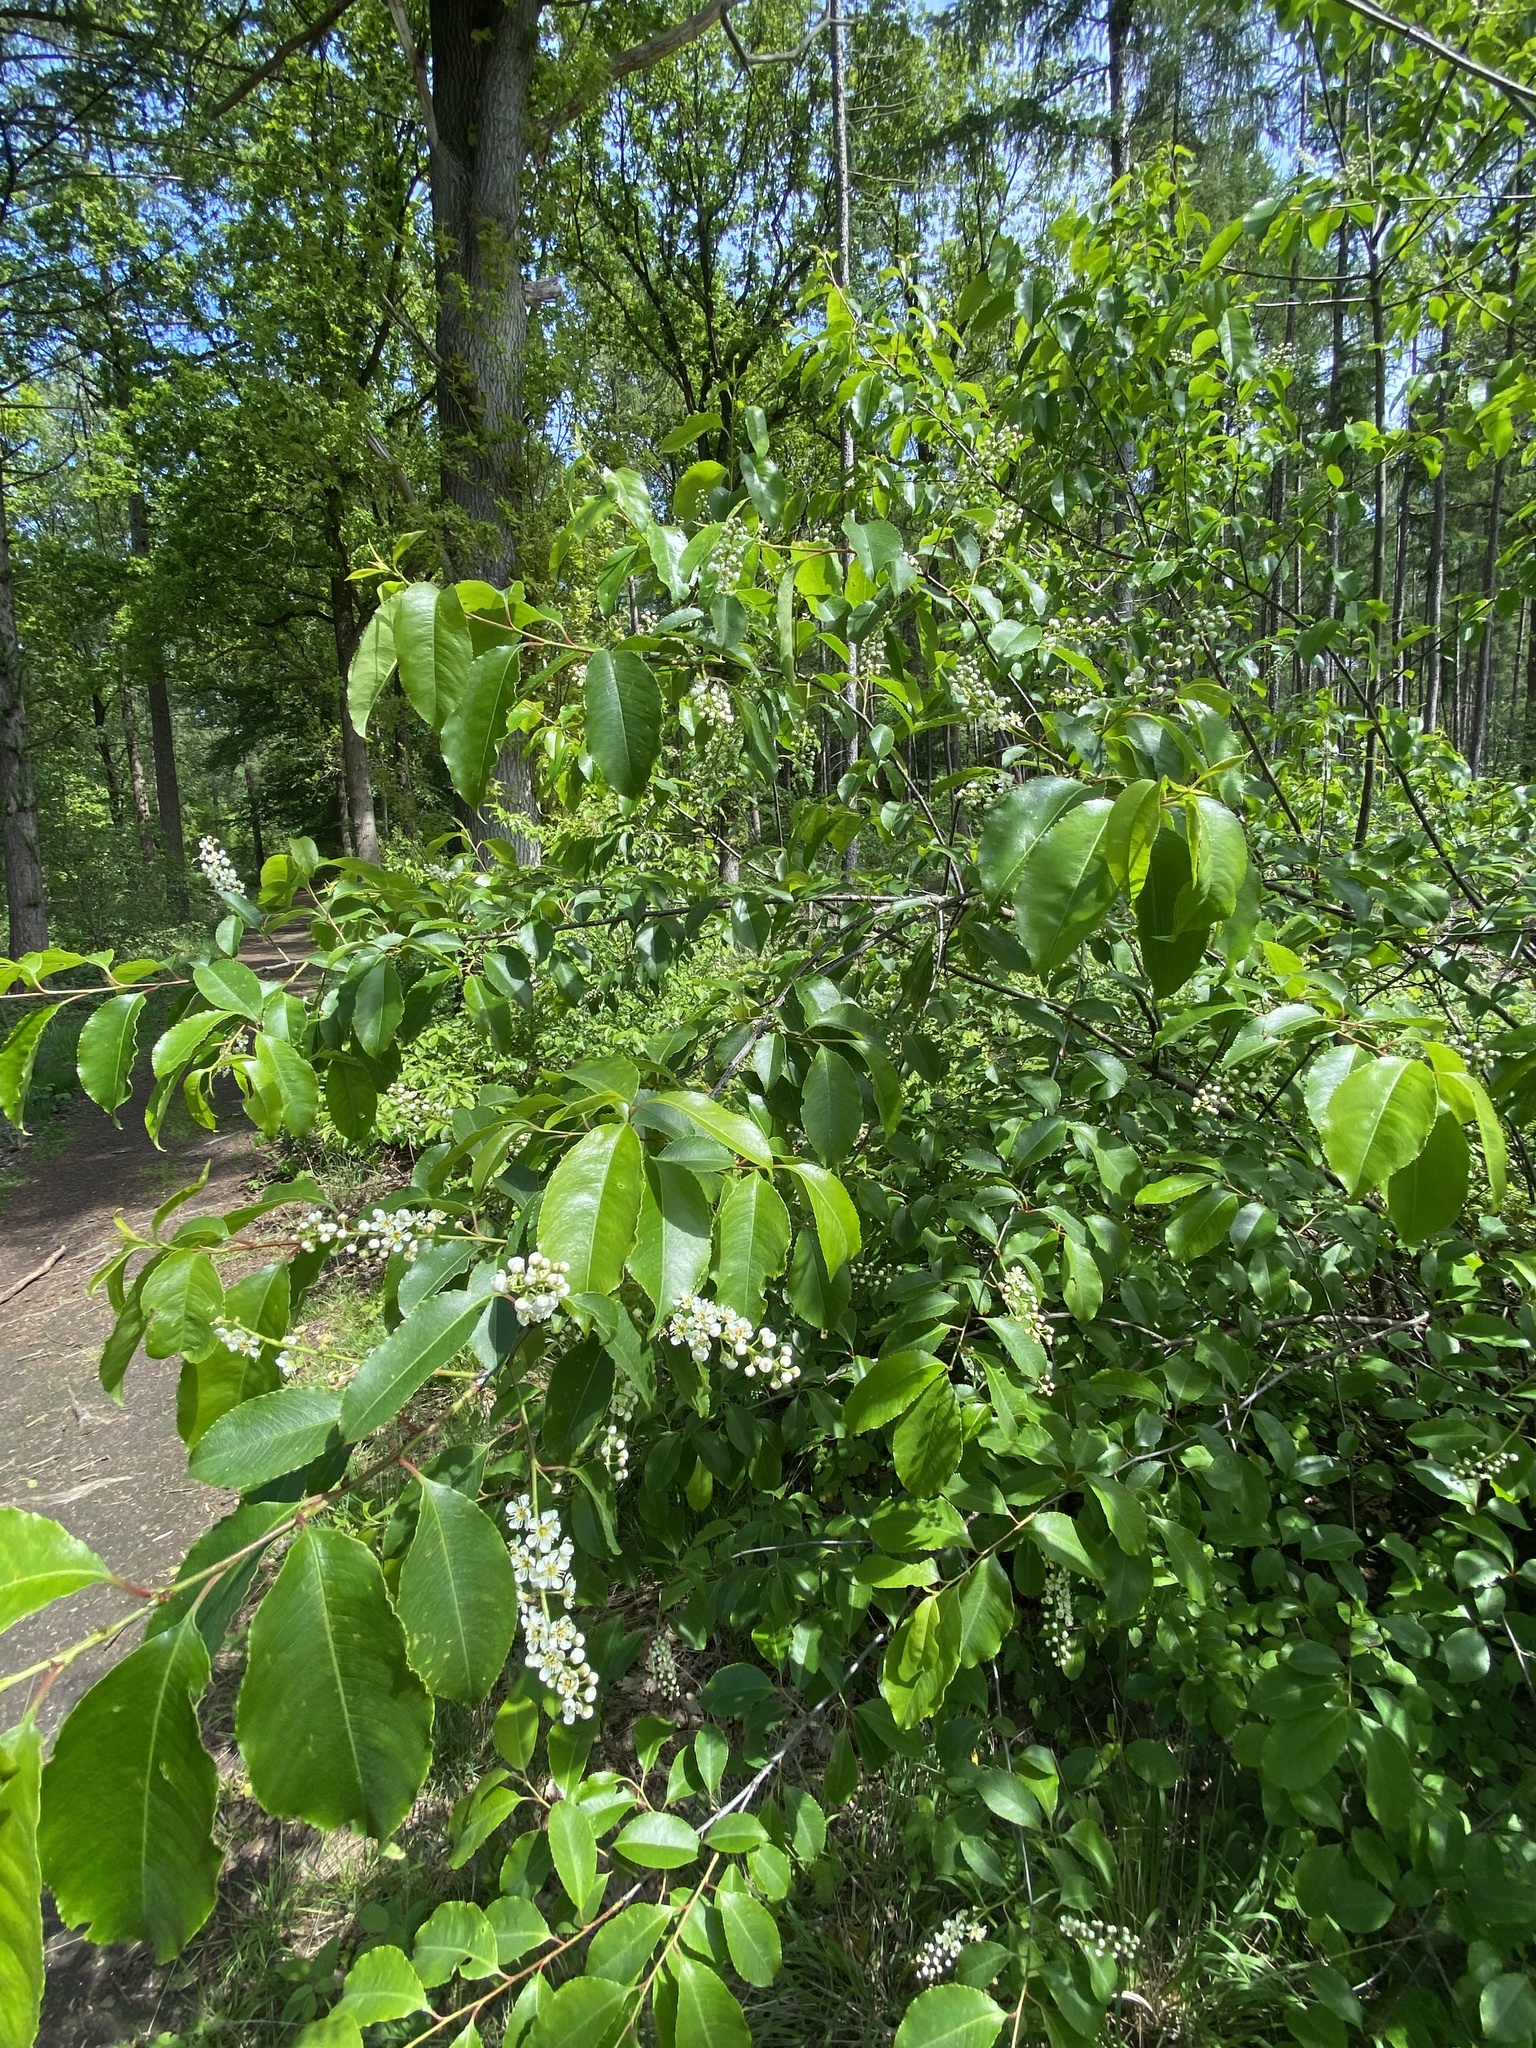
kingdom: Plantae
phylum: Tracheophyta
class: Magnoliopsida
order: Rosales
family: Rosaceae
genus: Prunus
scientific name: Prunus serotina
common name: Black cherry
